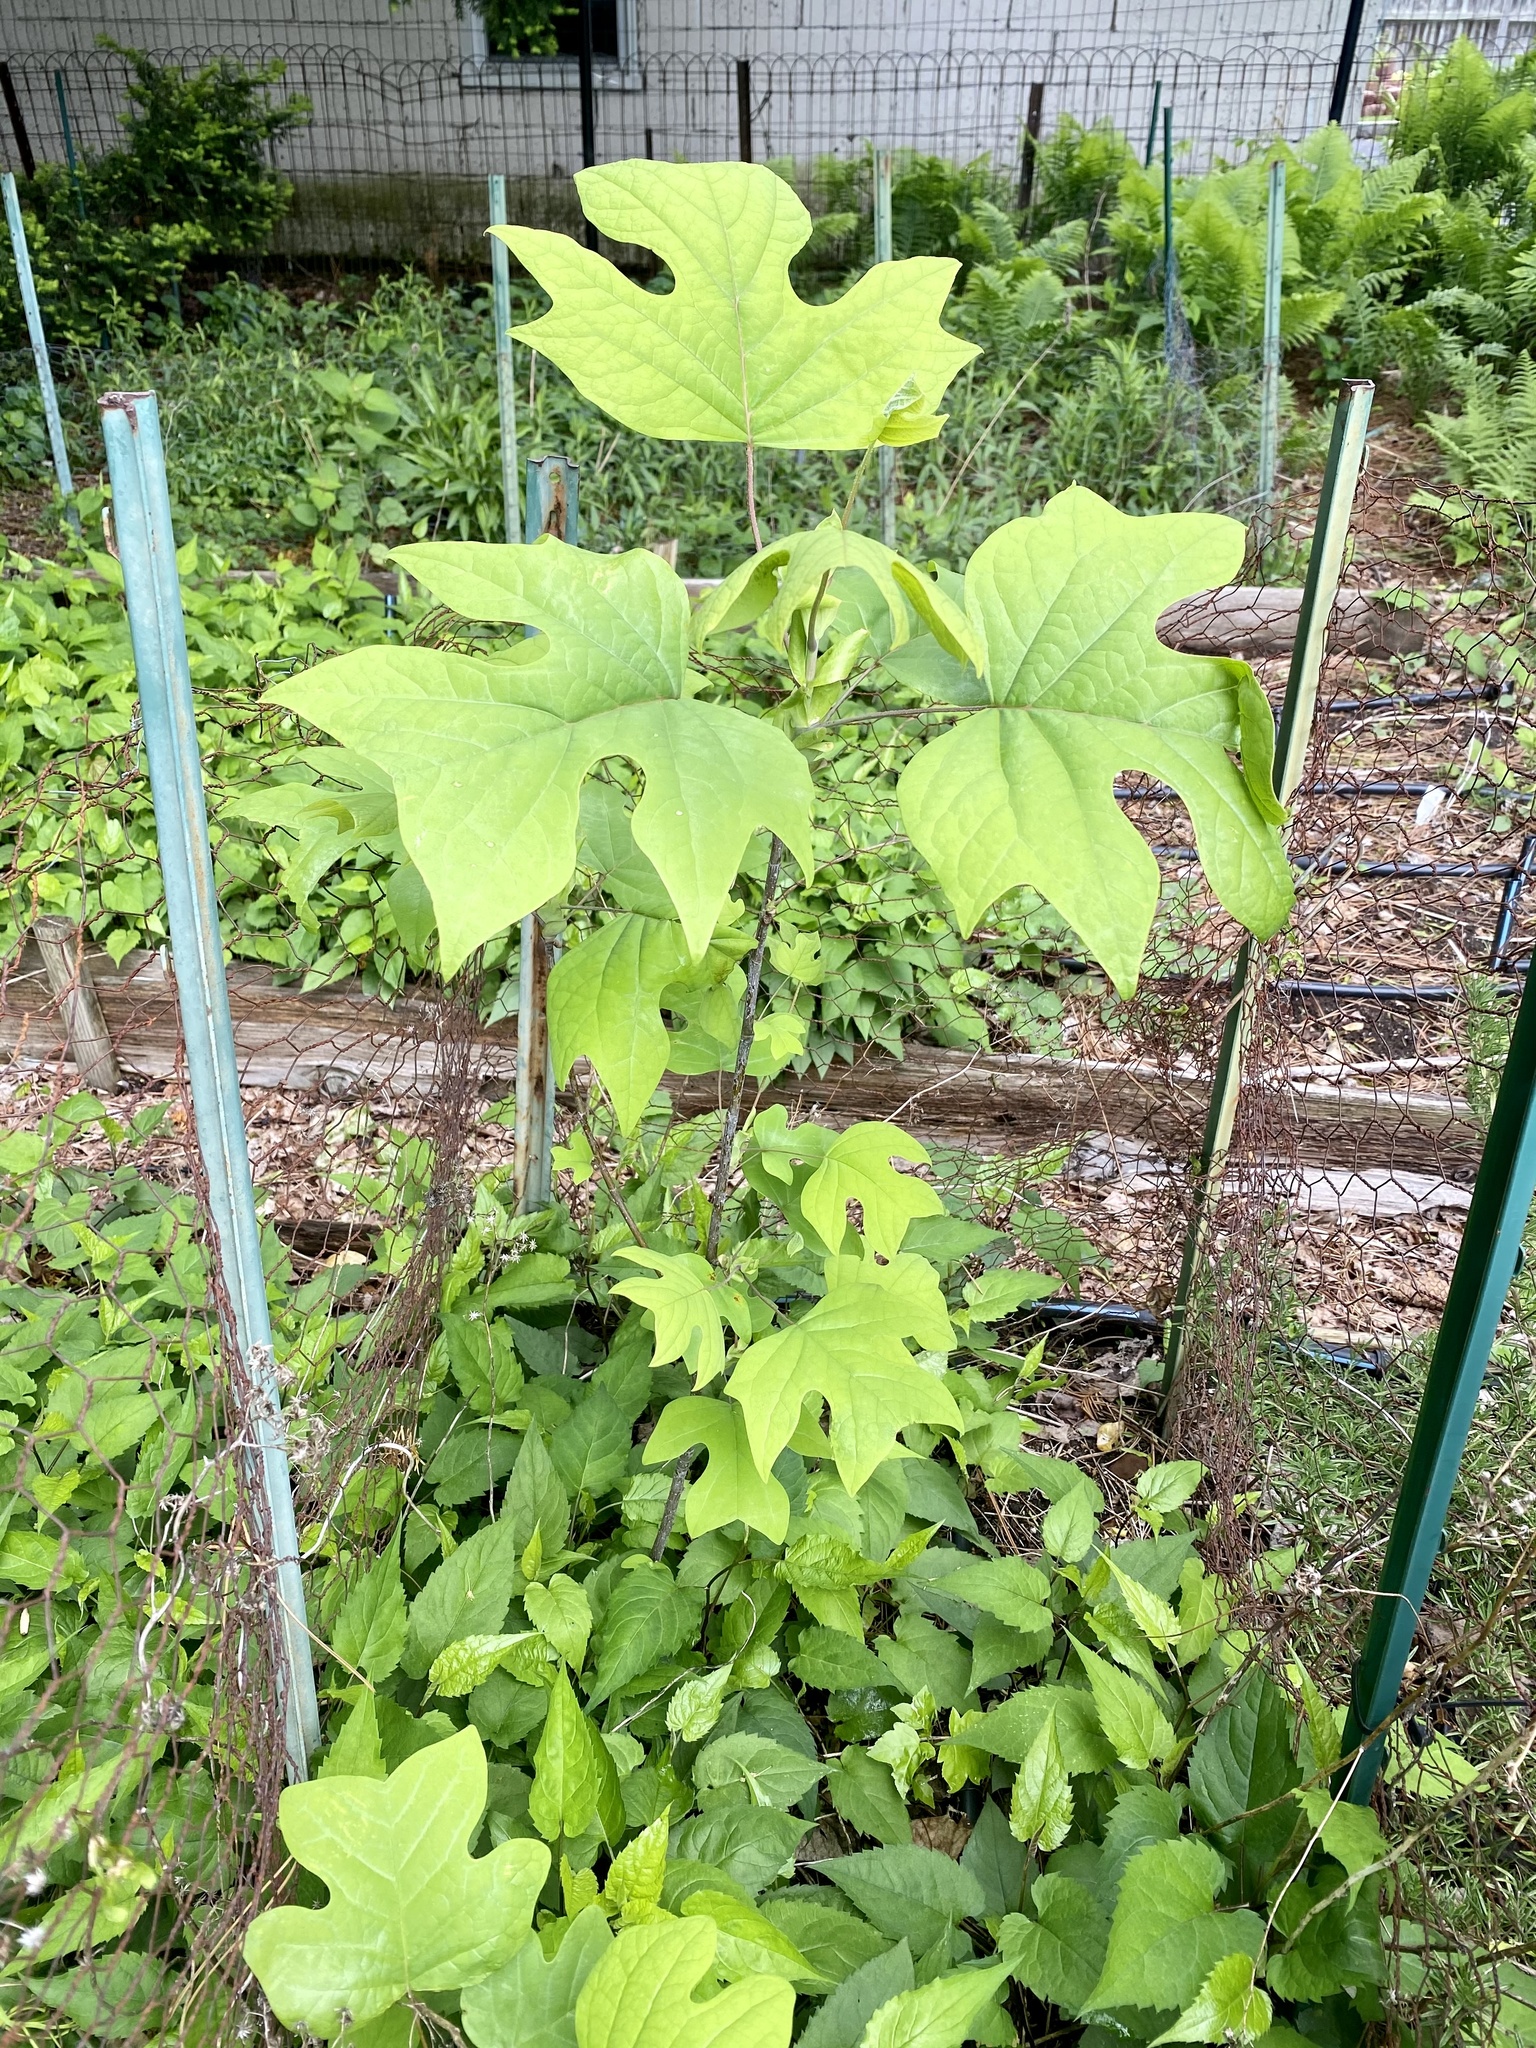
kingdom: Plantae
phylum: Tracheophyta
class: Magnoliopsida
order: Magnoliales
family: Magnoliaceae
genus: Liriodendron
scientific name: Liriodendron tulipifera
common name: Tulip tree
